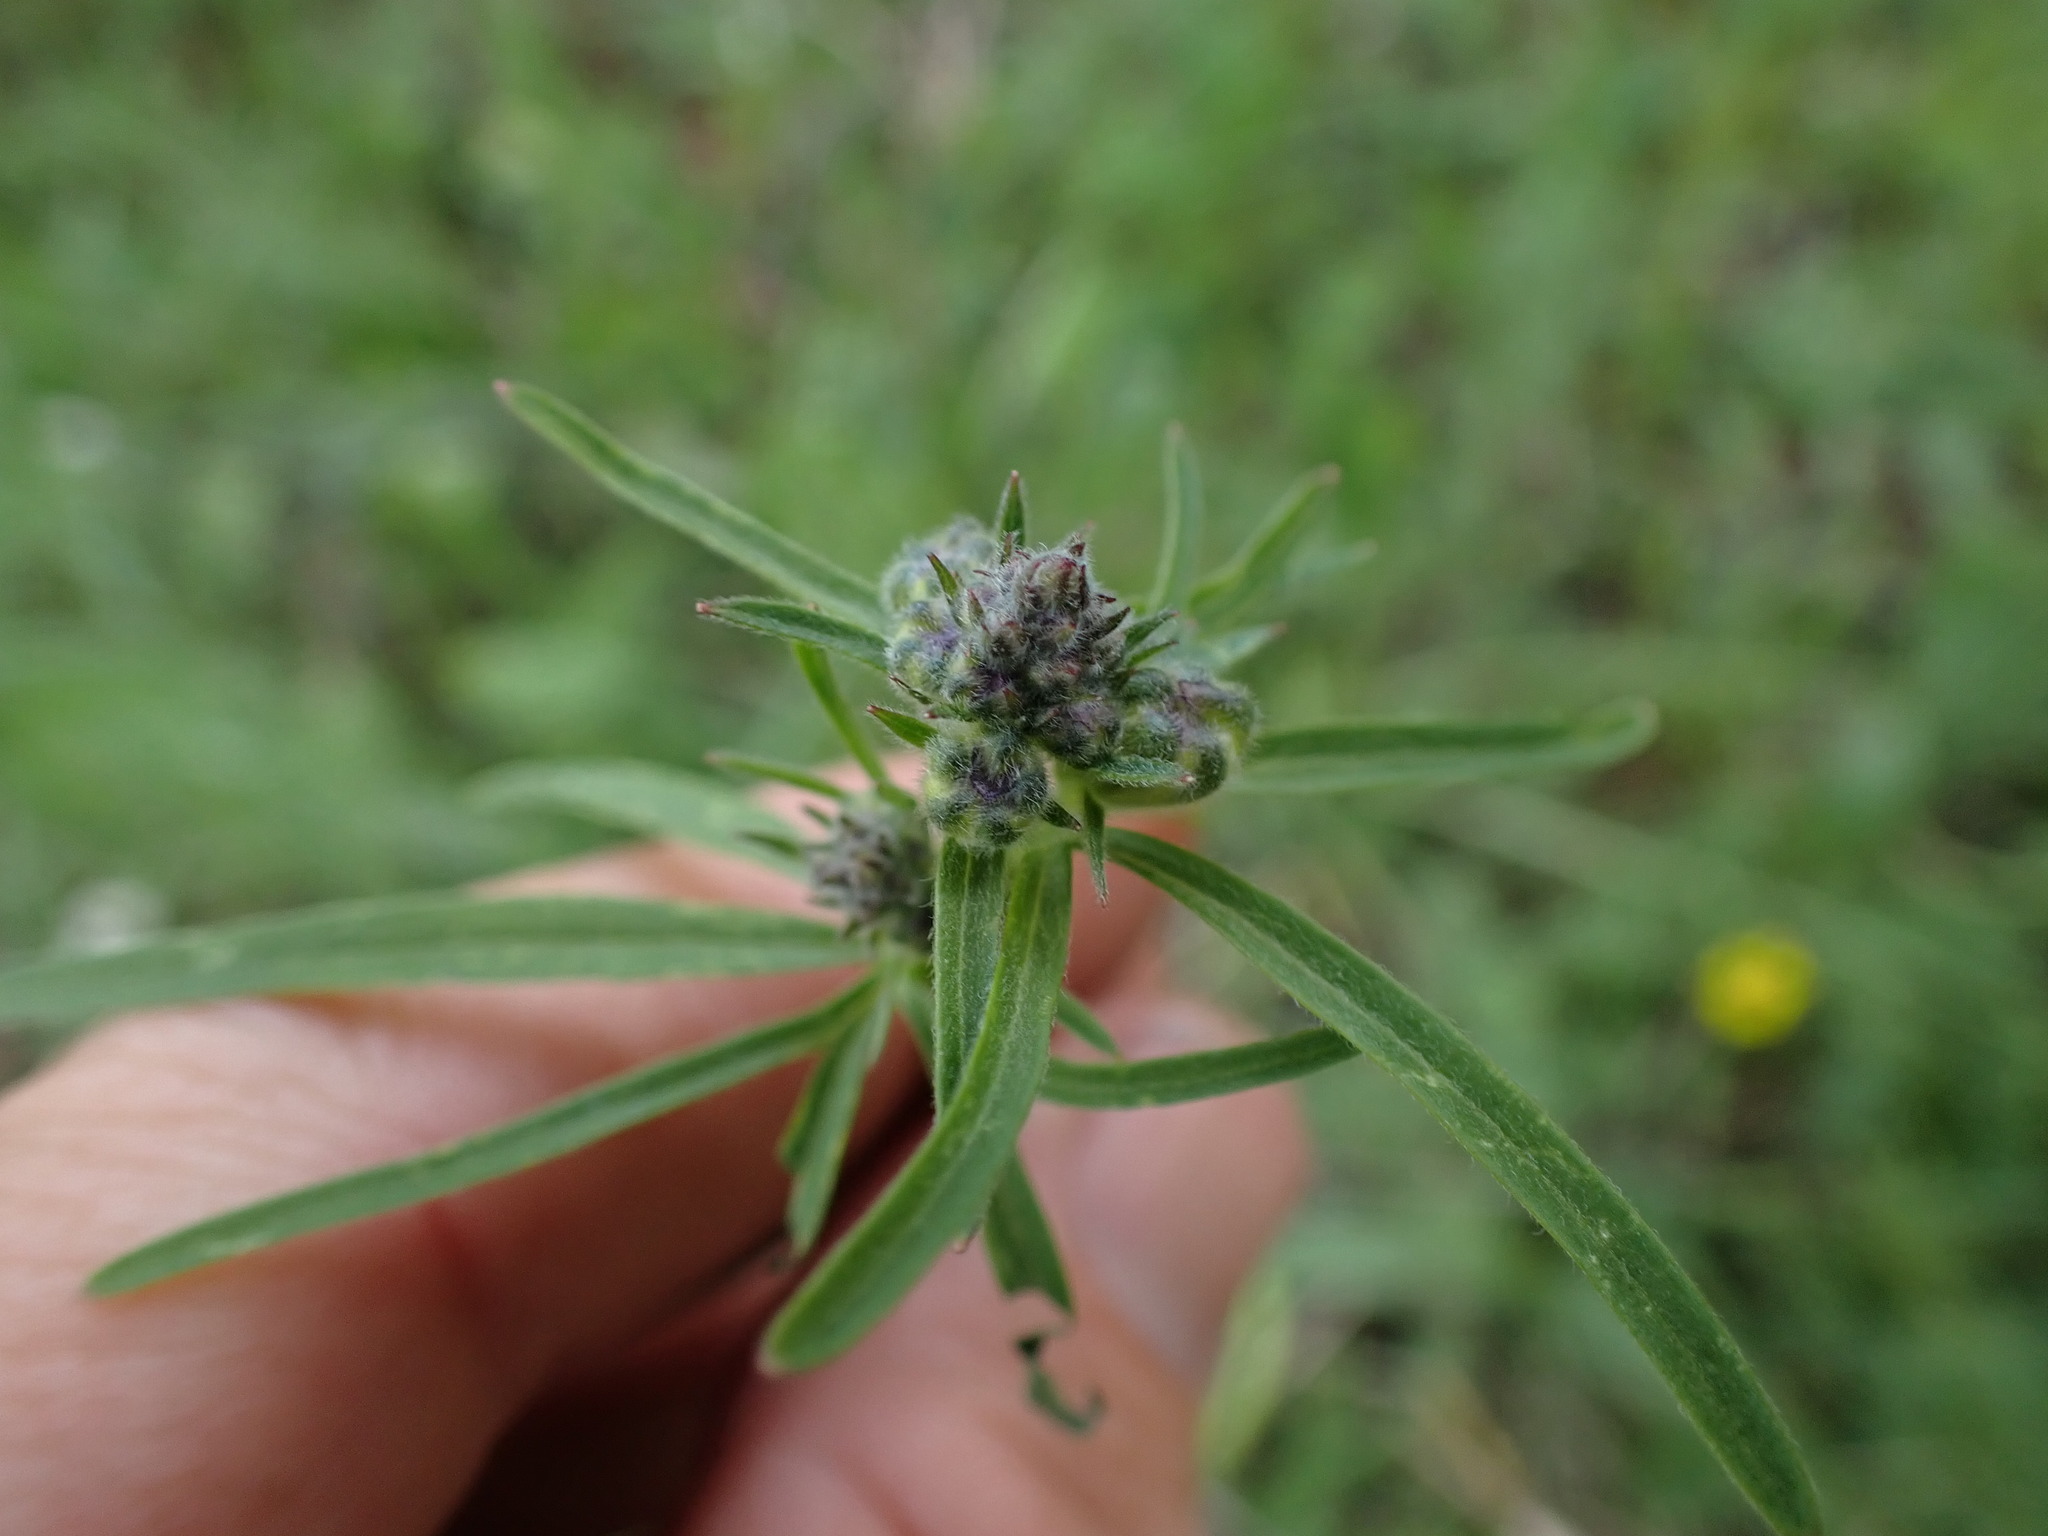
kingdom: Plantae
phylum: Tracheophyta
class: Magnoliopsida
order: Ranunculales
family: Ranunculaceae
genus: Delphinium
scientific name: Delphinium nuttallianum
